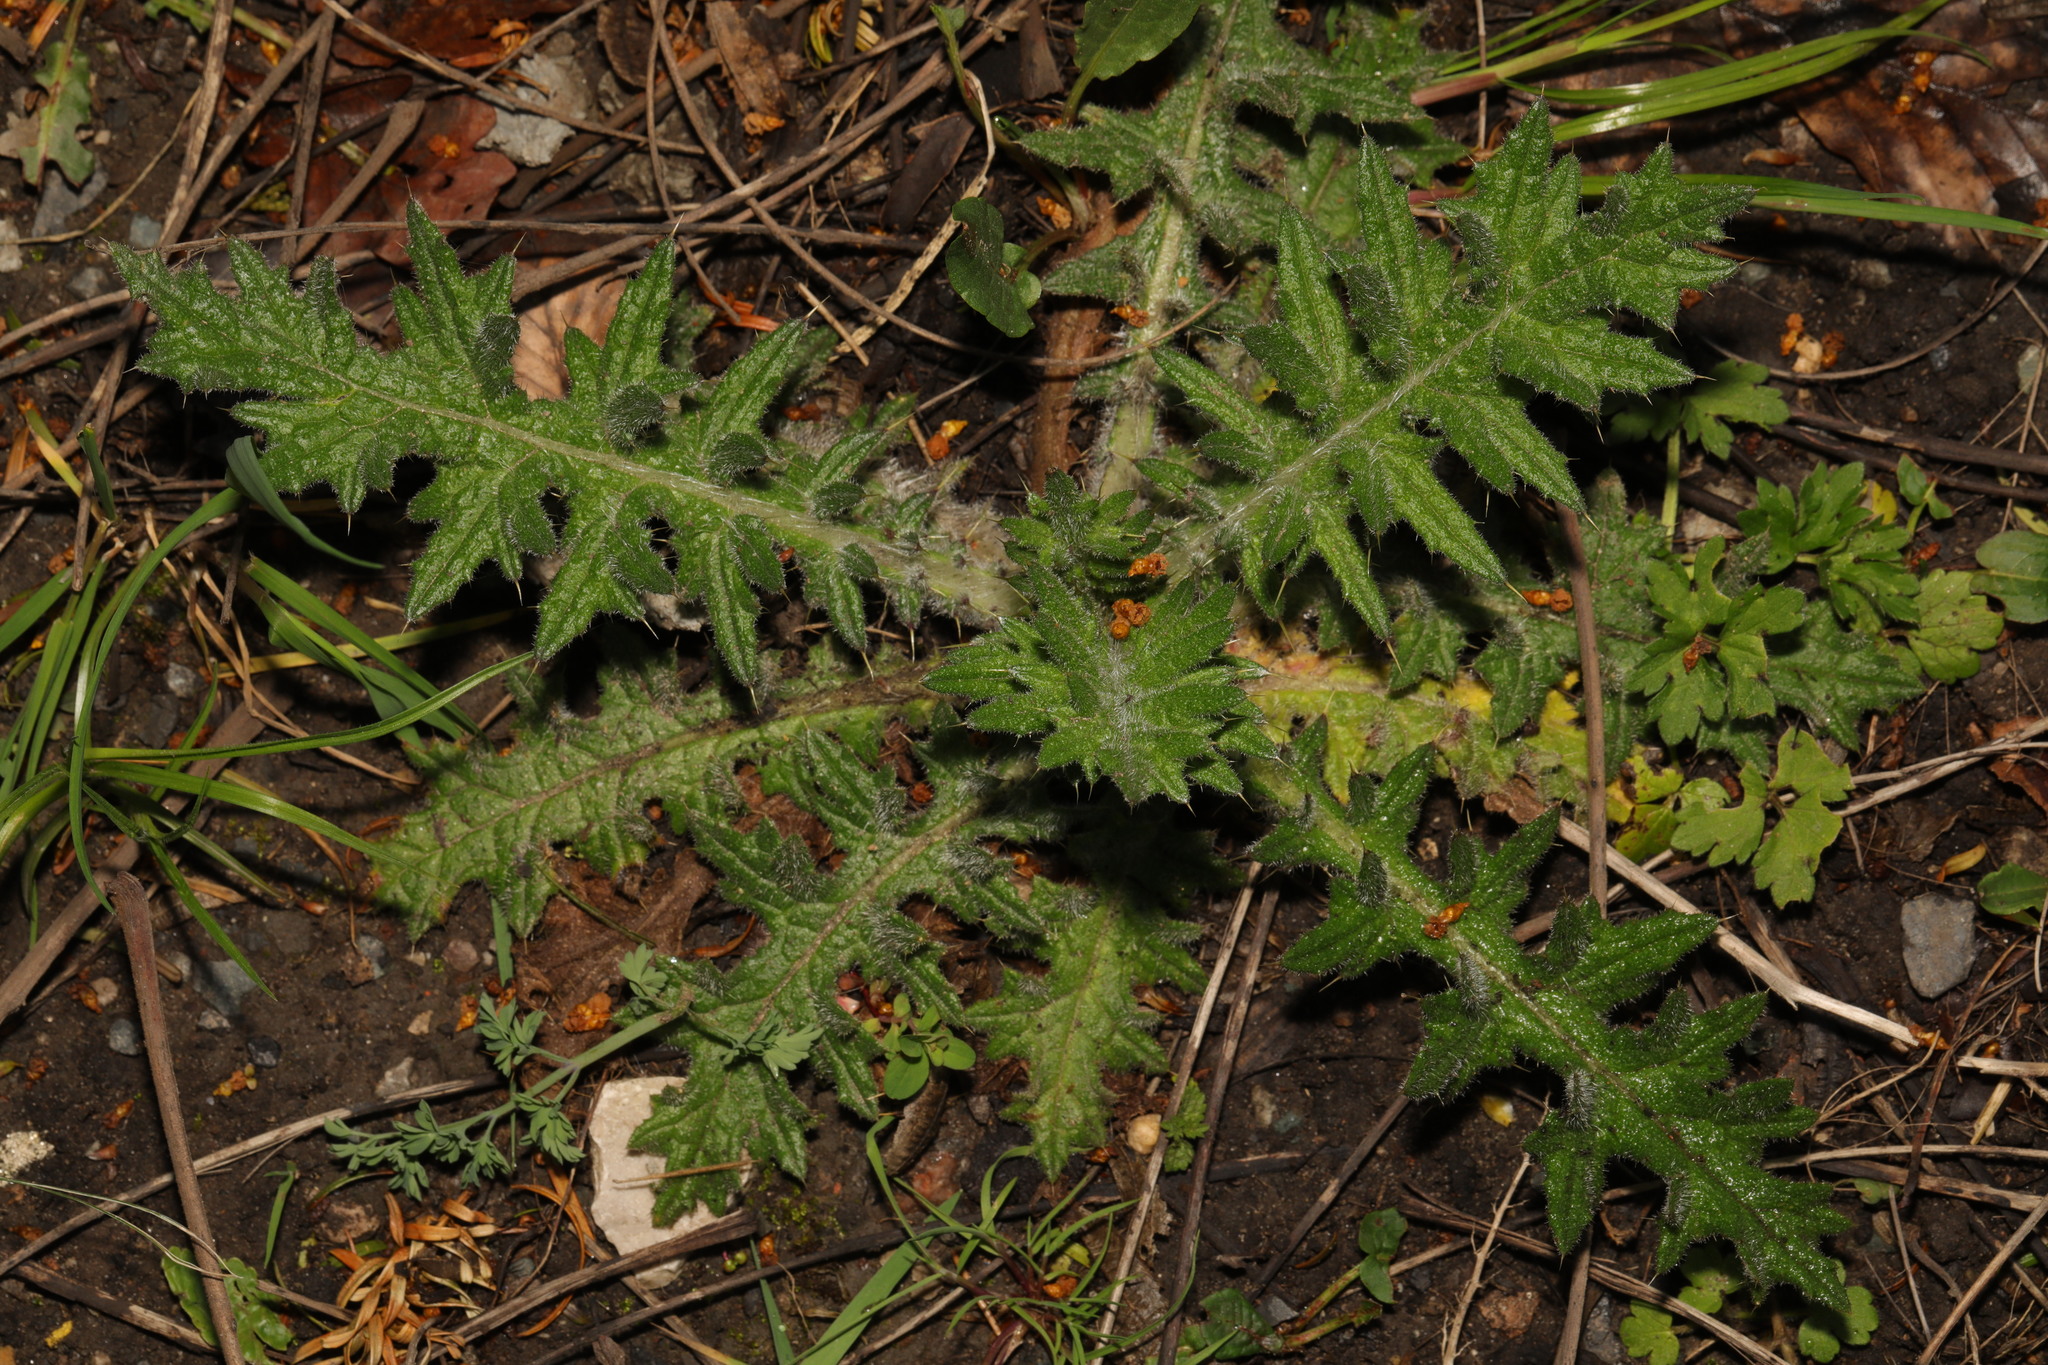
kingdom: Plantae
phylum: Tracheophyta
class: Magnoliopsida
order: Asterales
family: Asteraceae
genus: Cirsium
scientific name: Cirsium vulgare
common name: Bull thistle
